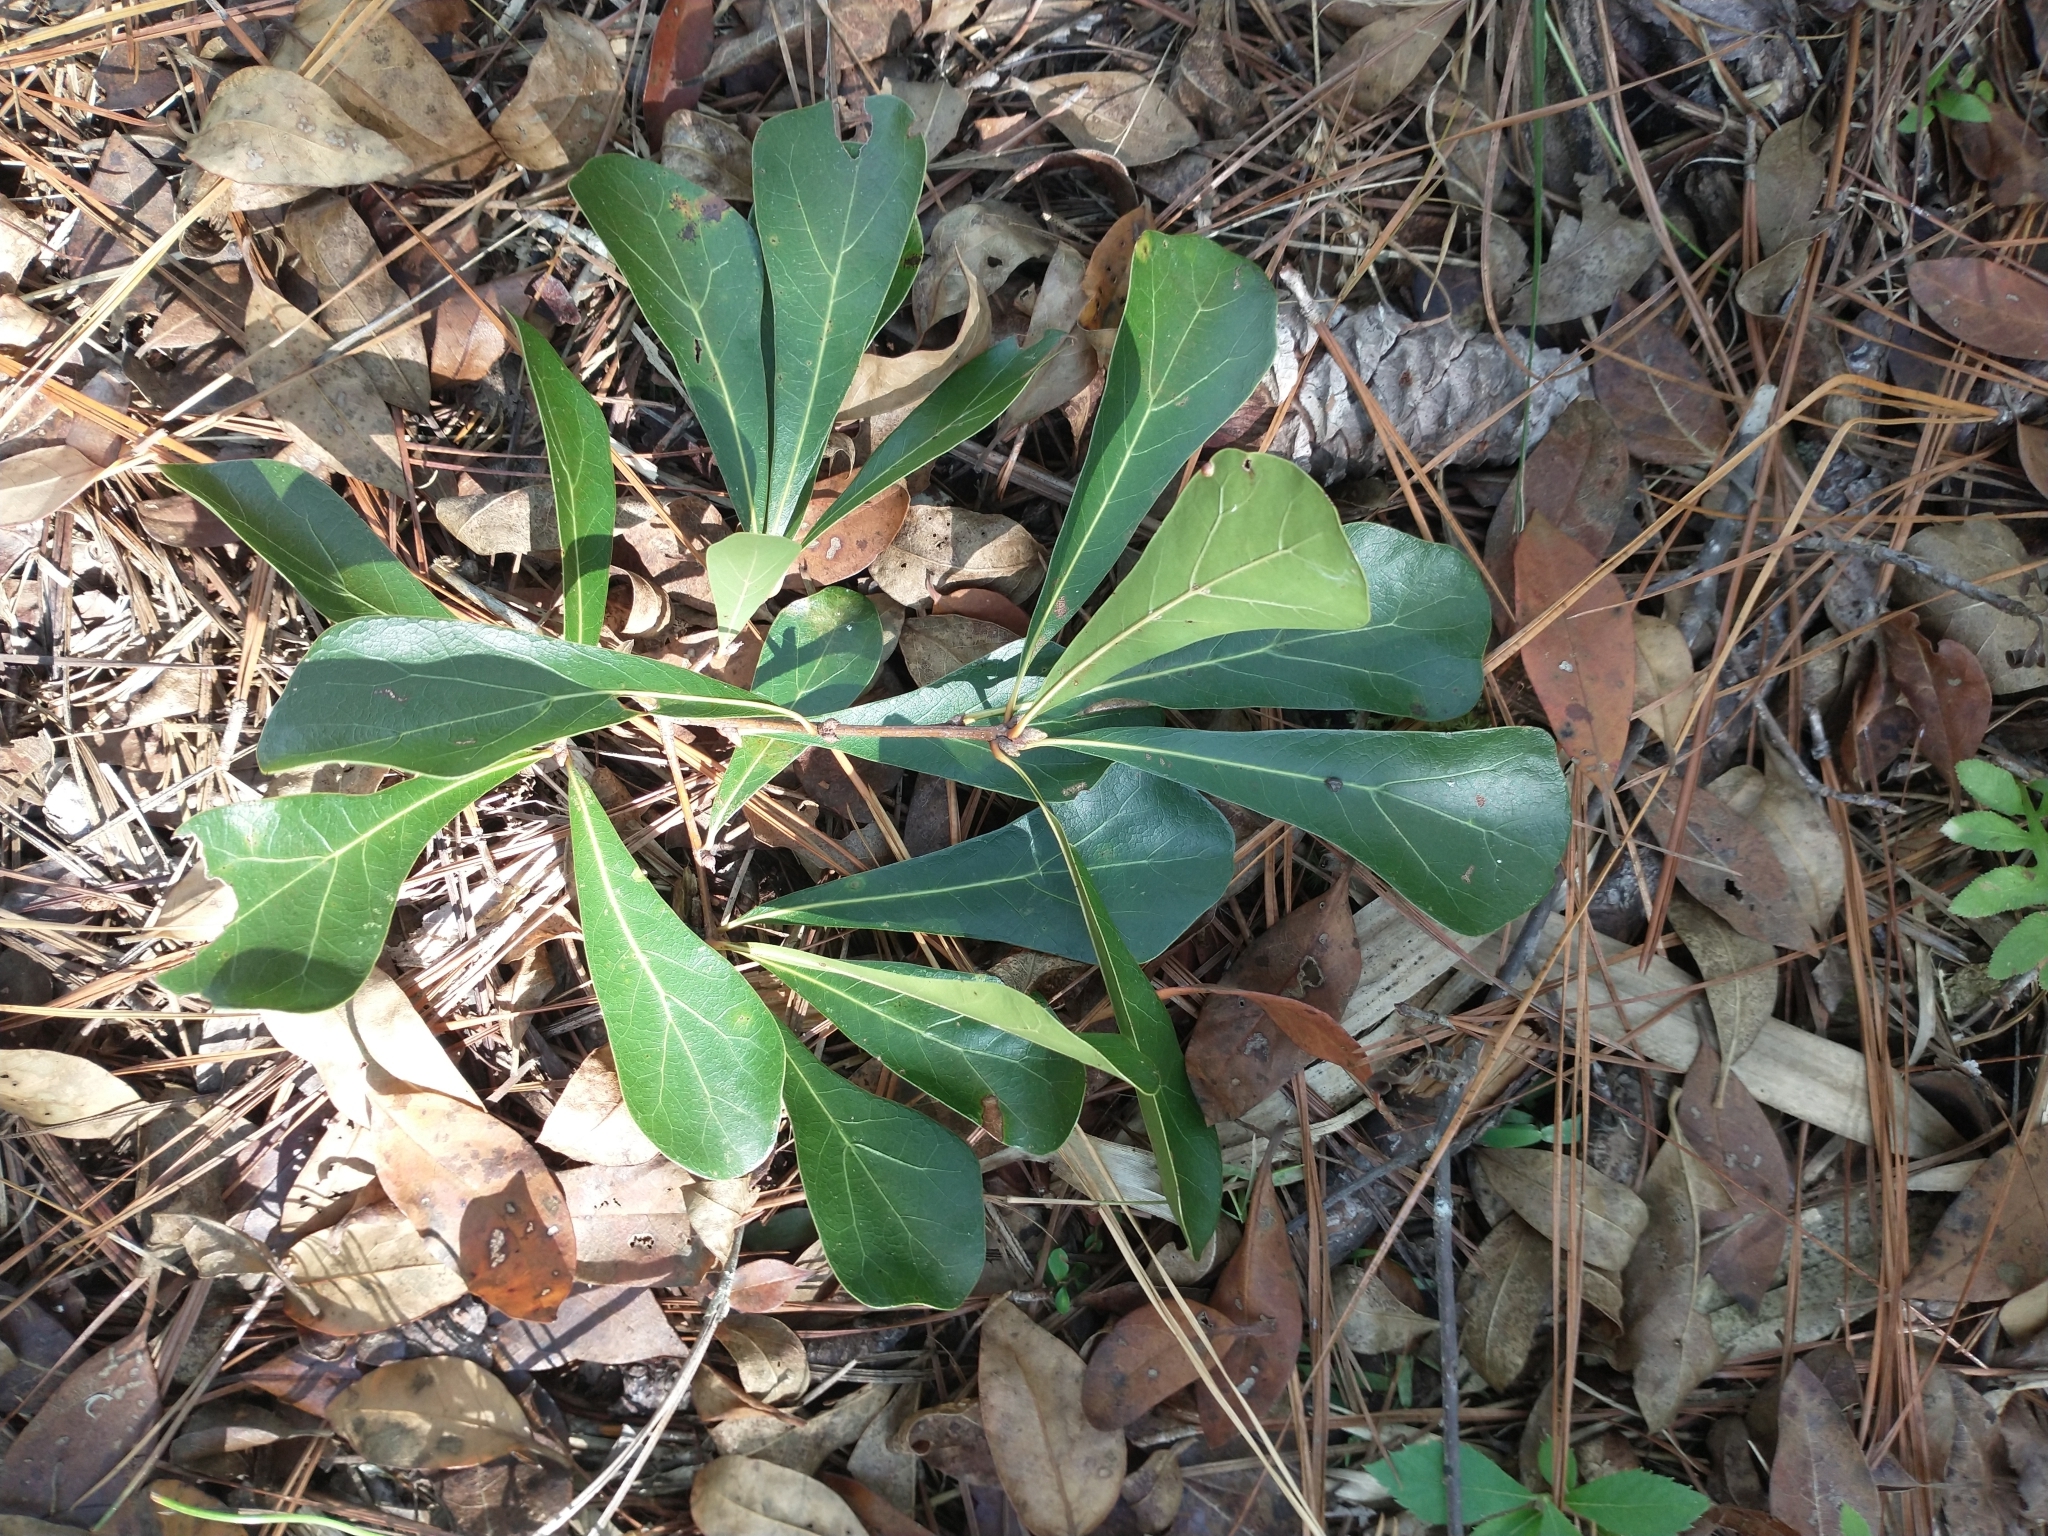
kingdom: Plantae
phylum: Tracheophyta
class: Magnoliopsida
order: Fagales
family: Fagaceae
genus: Quercus
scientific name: Quercus nigra
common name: Water oak
